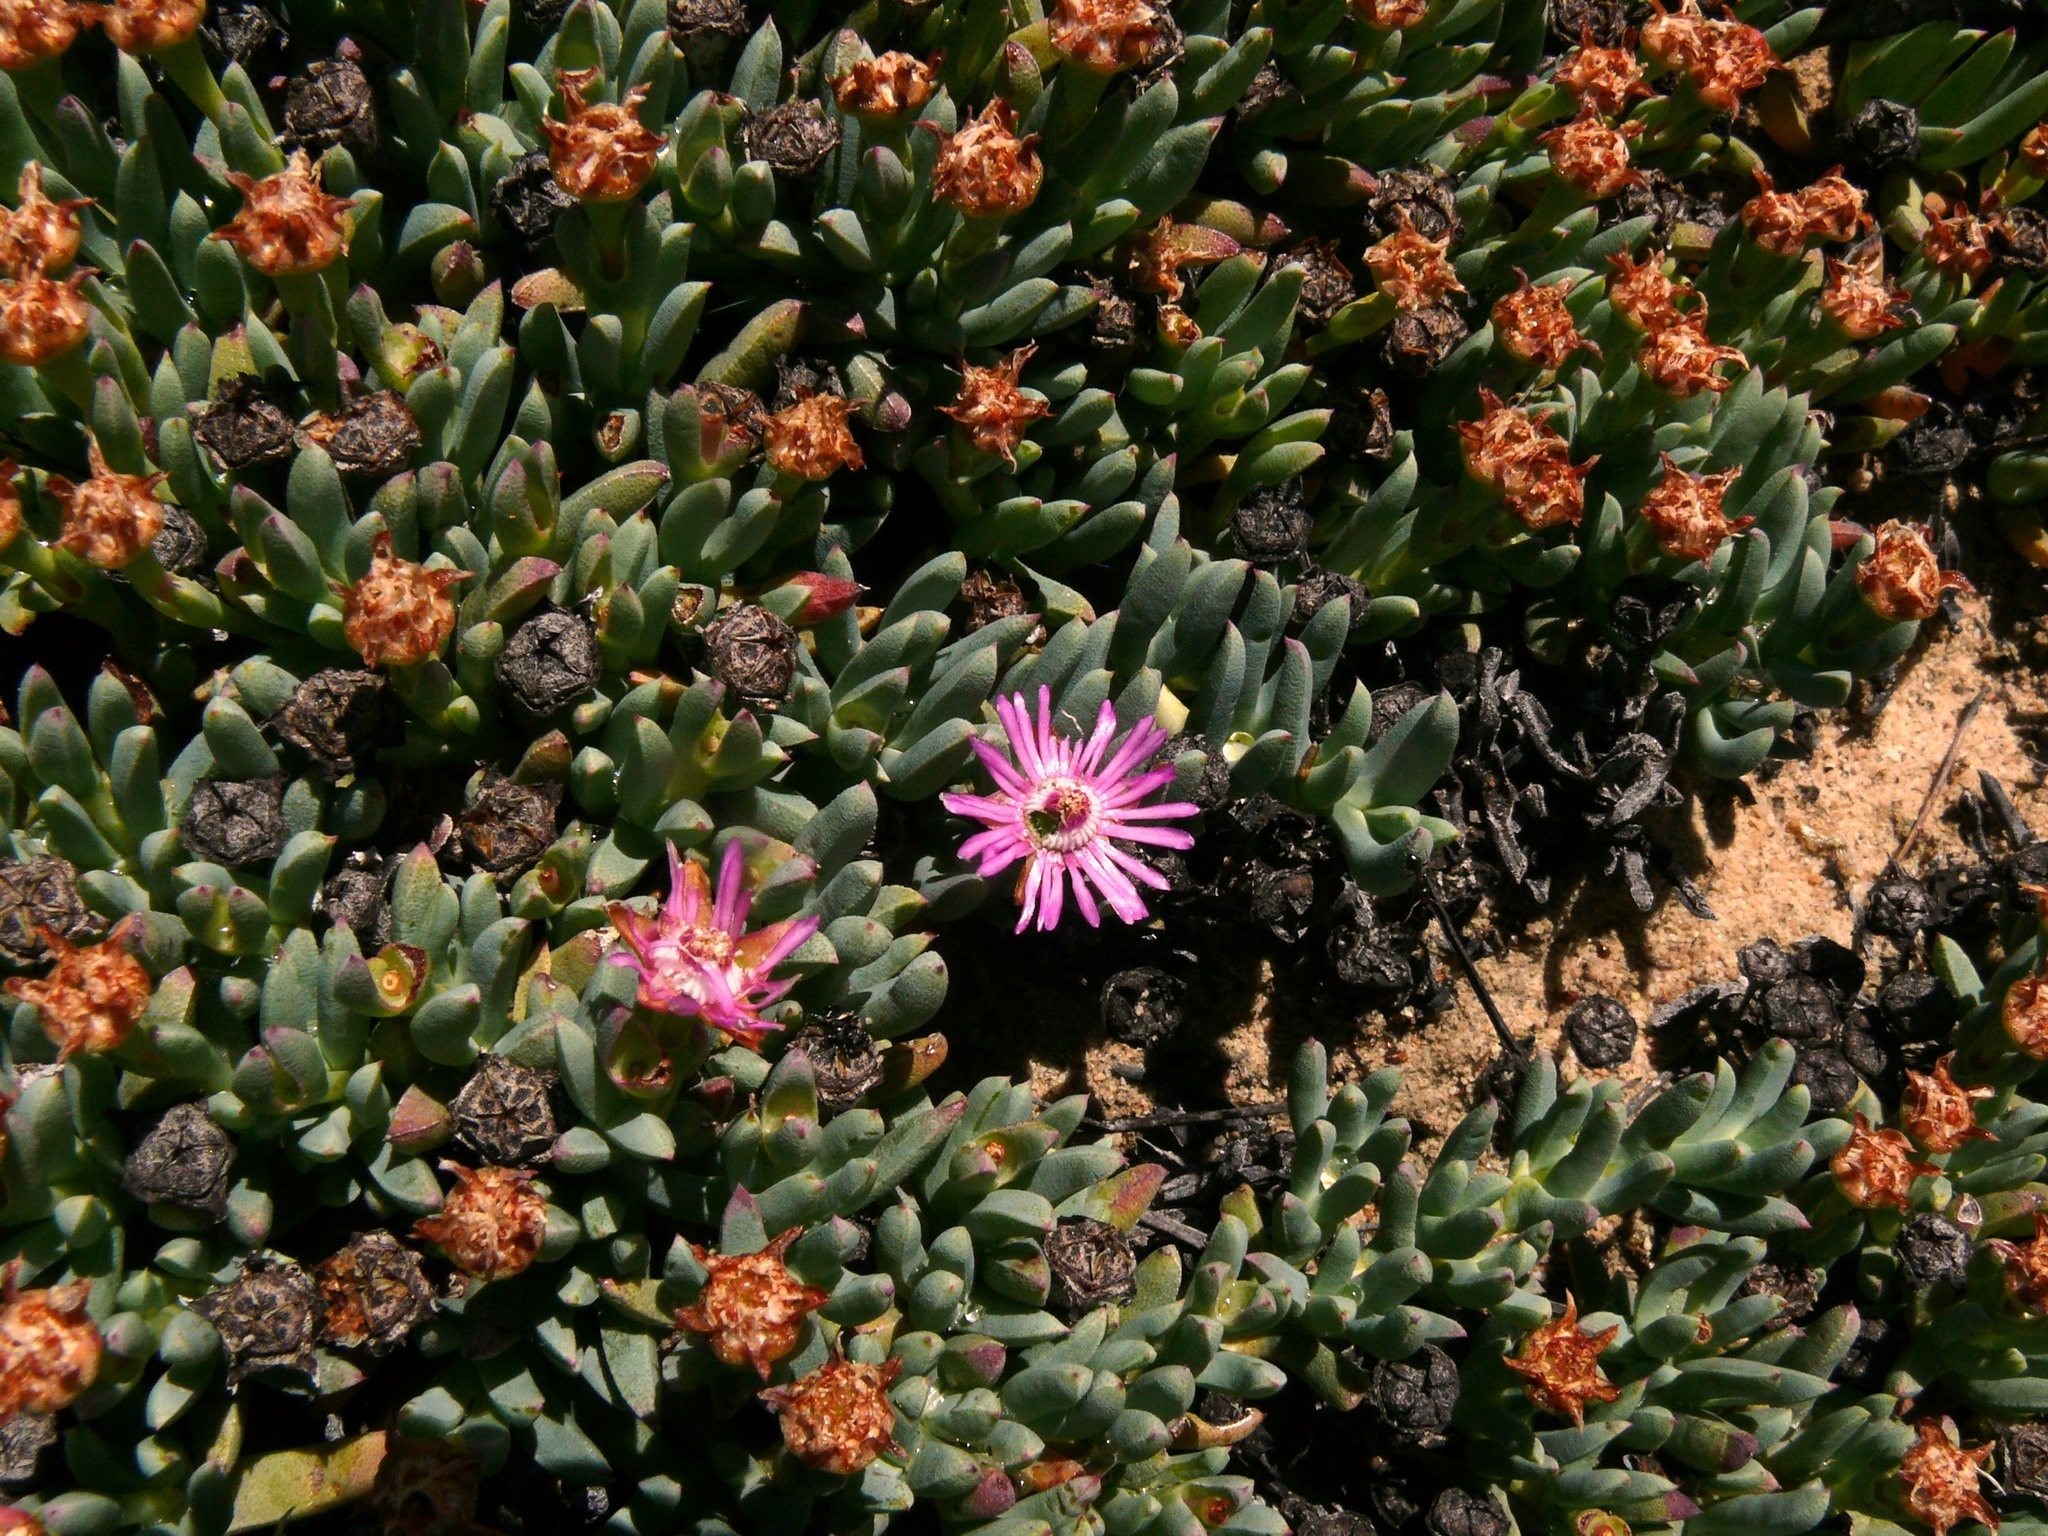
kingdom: Plantae
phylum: Tracheophyta
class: Magnoliopsida
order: Caryophyllales
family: Aizoaceae
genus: Phiambolia
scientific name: Phiambolia unca
